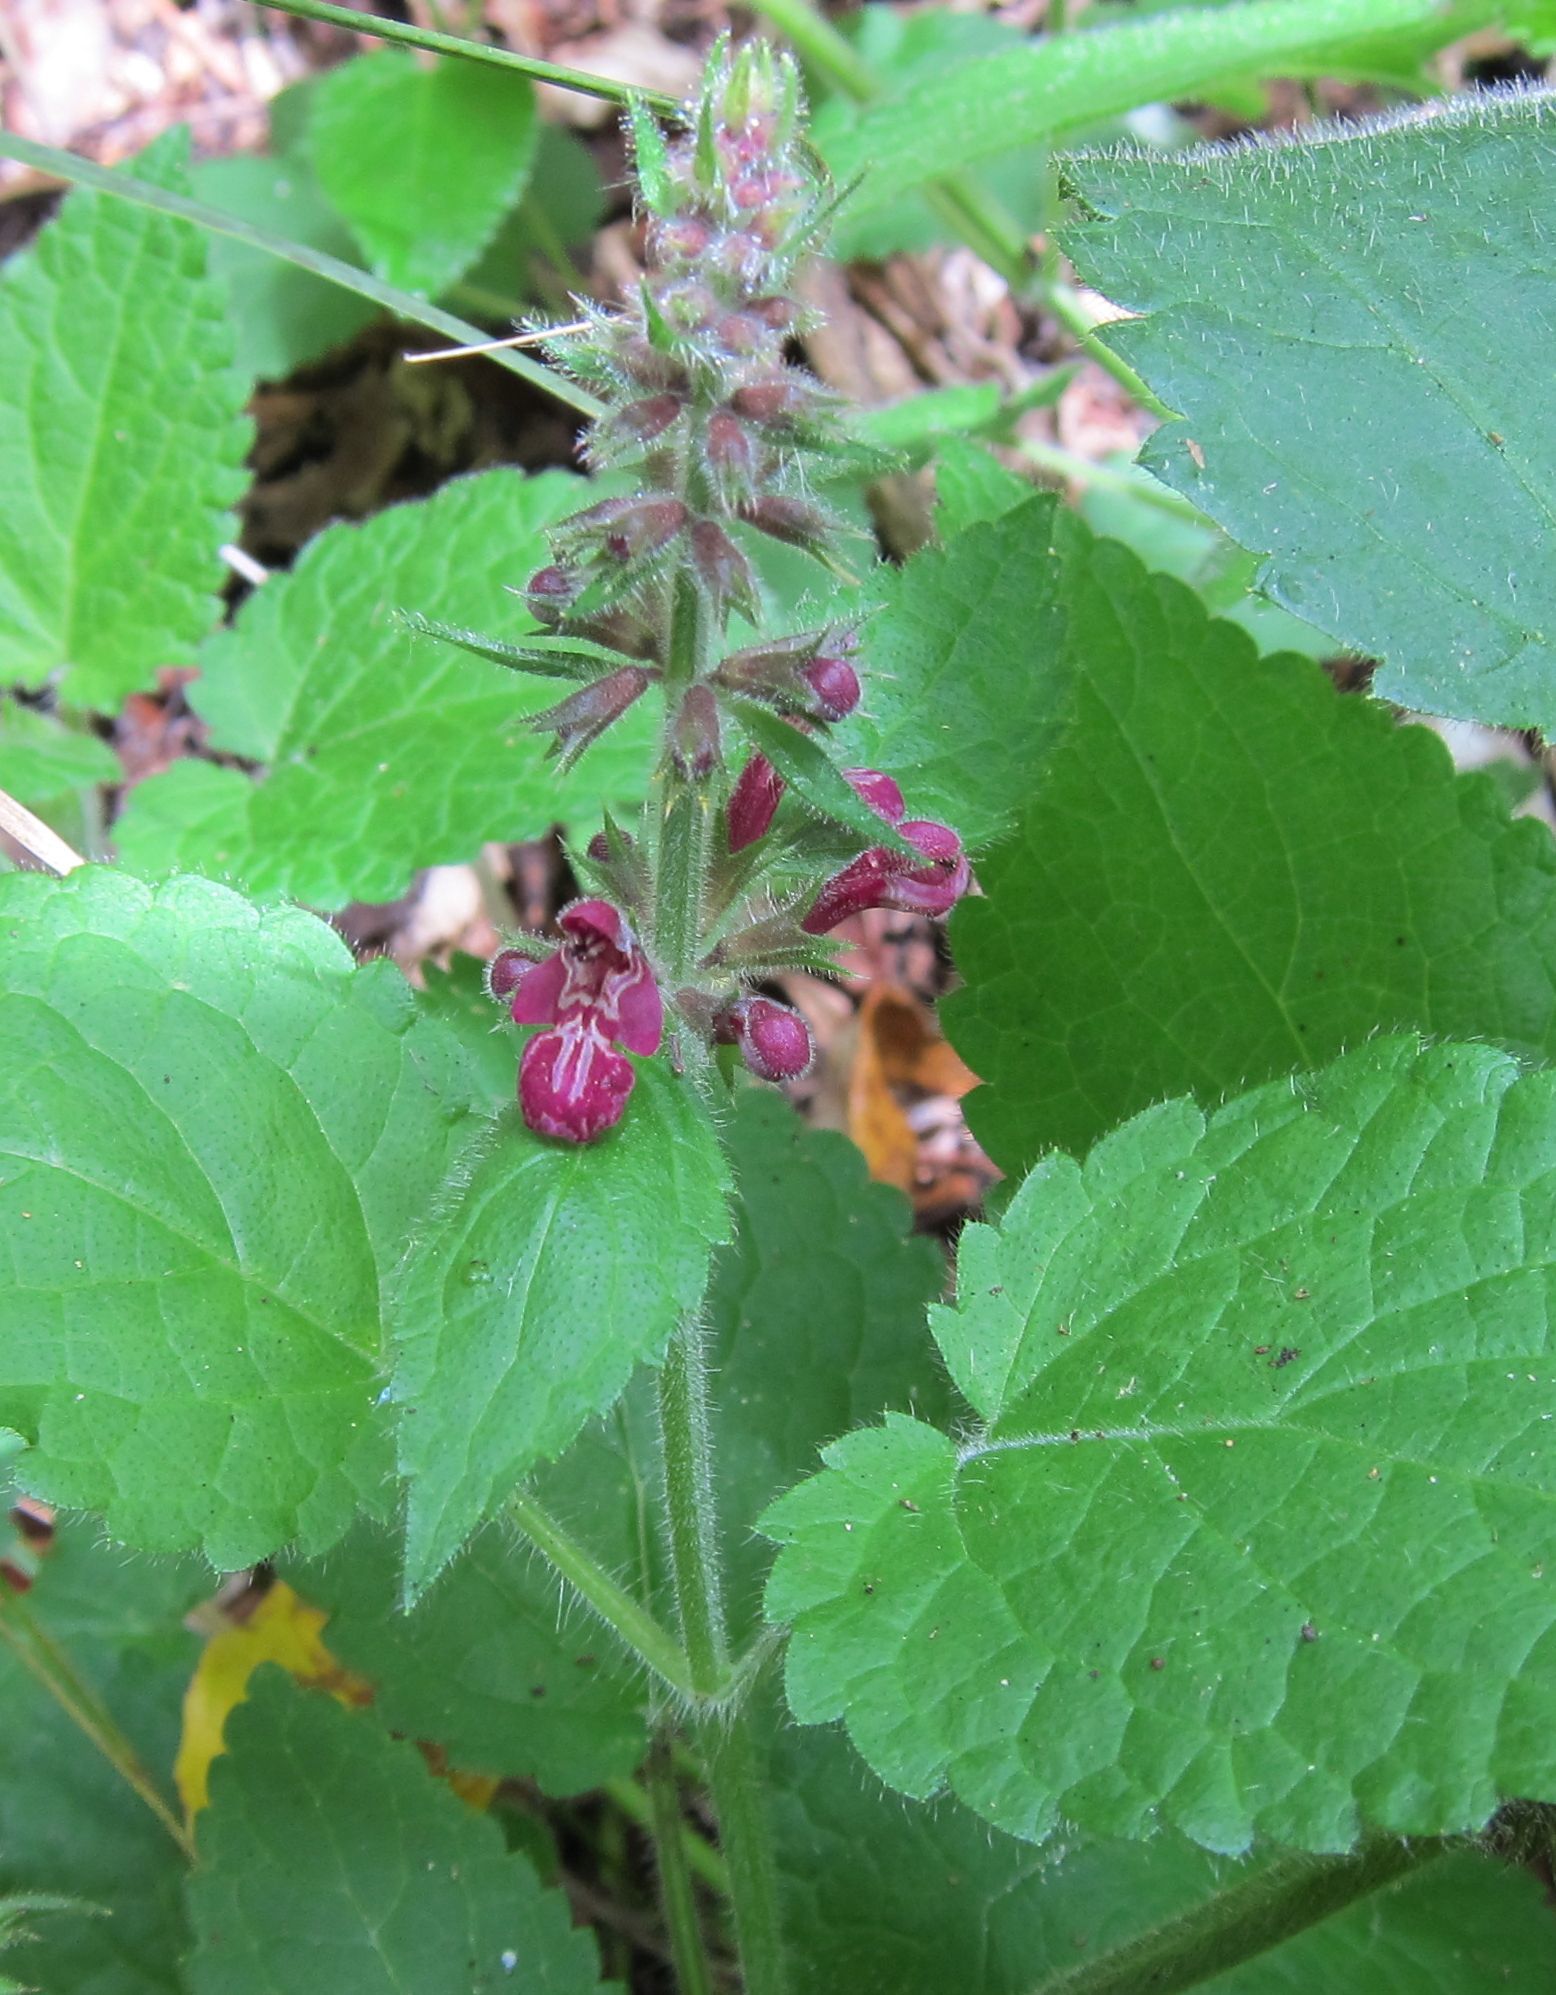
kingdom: Plantae
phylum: Tracheophyta
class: Magnoliopsida
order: Lamiales
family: Lamiaceae
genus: Stachys
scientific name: Stachys sylvatica
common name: Hedge woundwort
